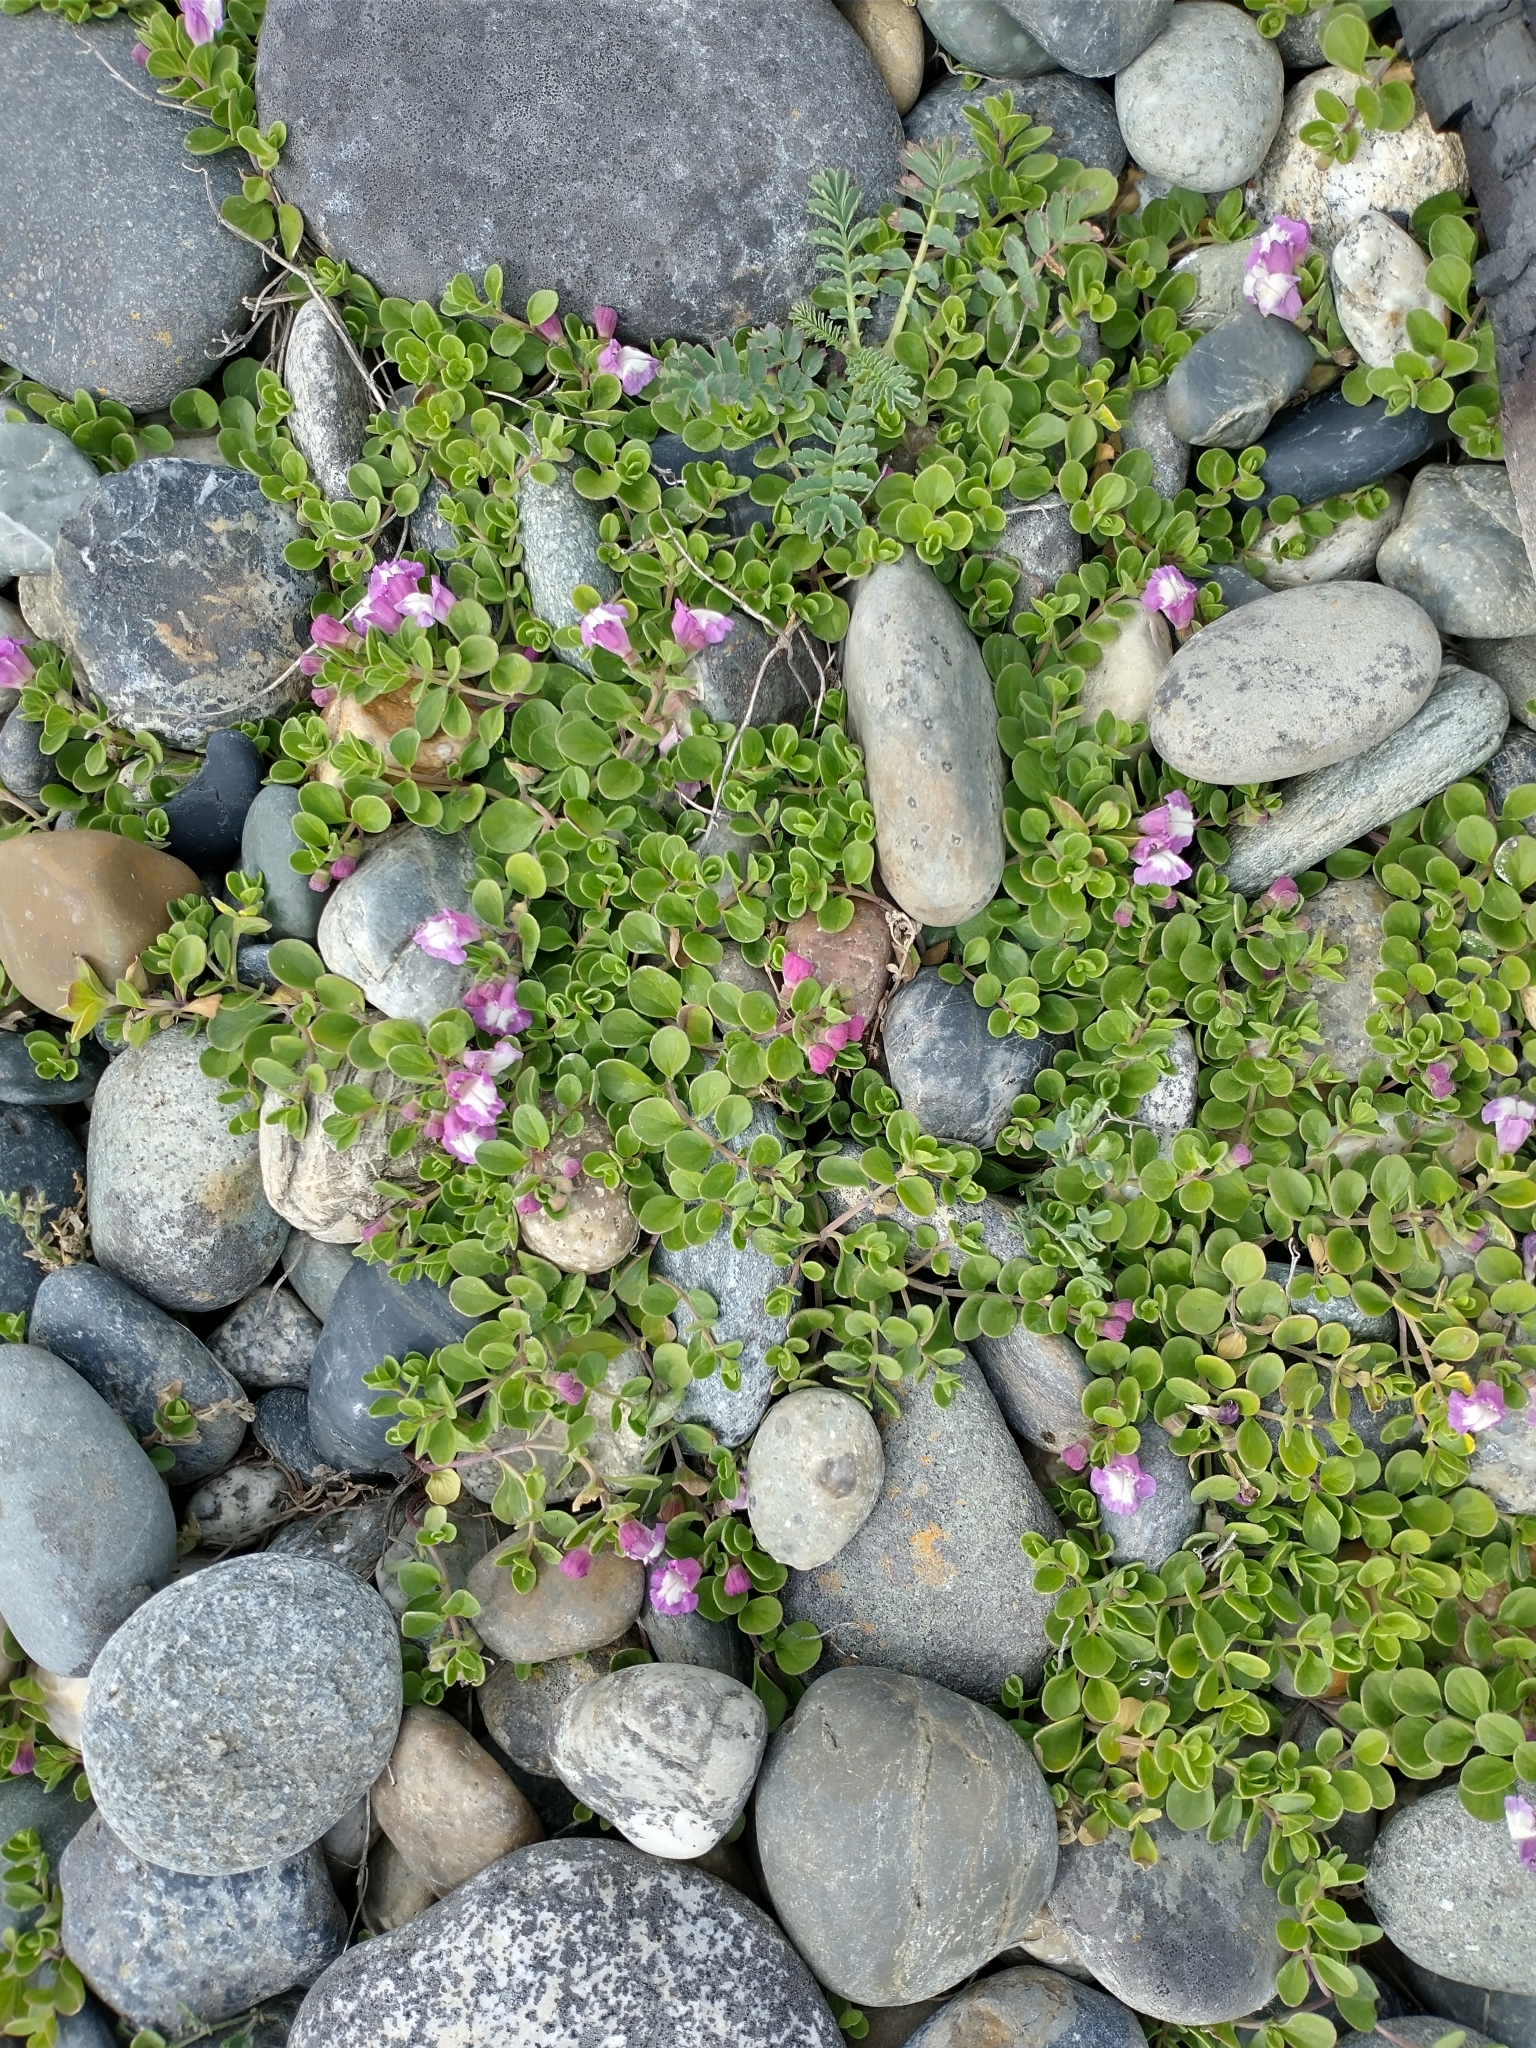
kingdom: Plantae
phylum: Tracheophyta
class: Magnoliopsida
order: Lamiales
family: Lamiaceae
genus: Scutellaria
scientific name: Scutellaria nummulariifolia
